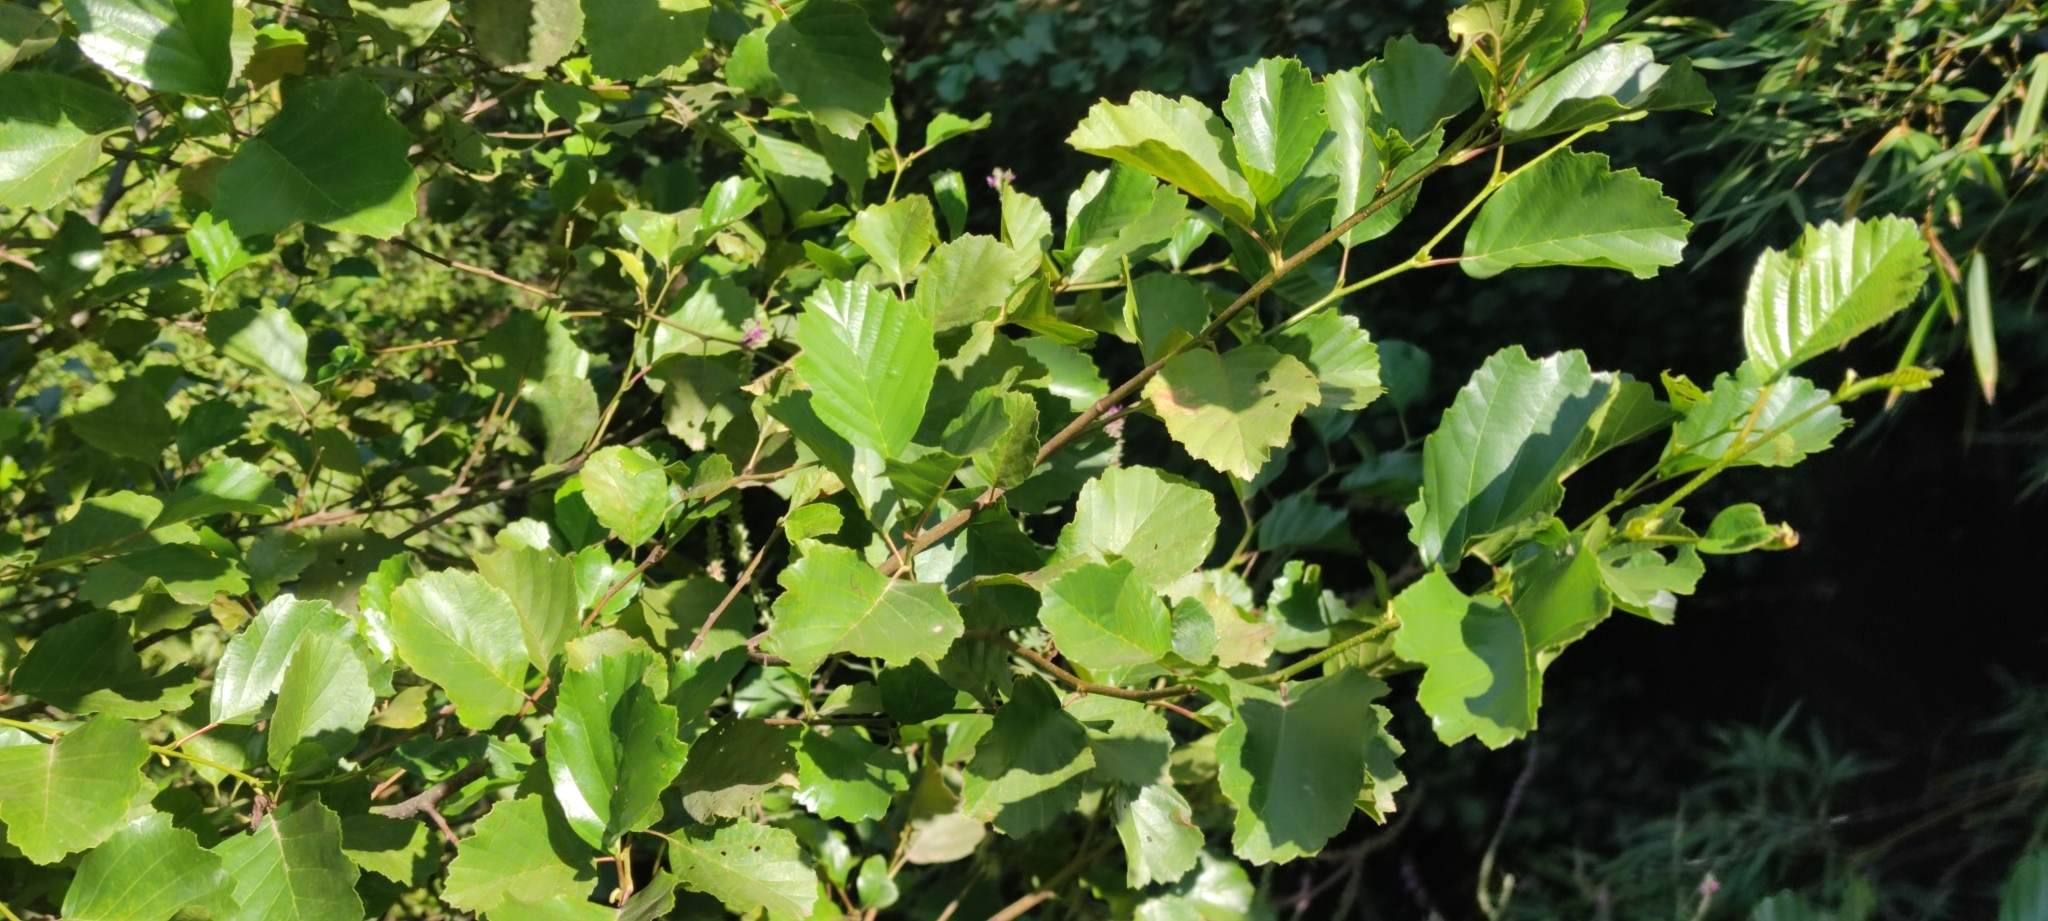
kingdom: Plantae
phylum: Tracheophyta
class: Magnoliopsida
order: Fagales
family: Betulaceae
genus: Alnus
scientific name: Alnus lusitanica
